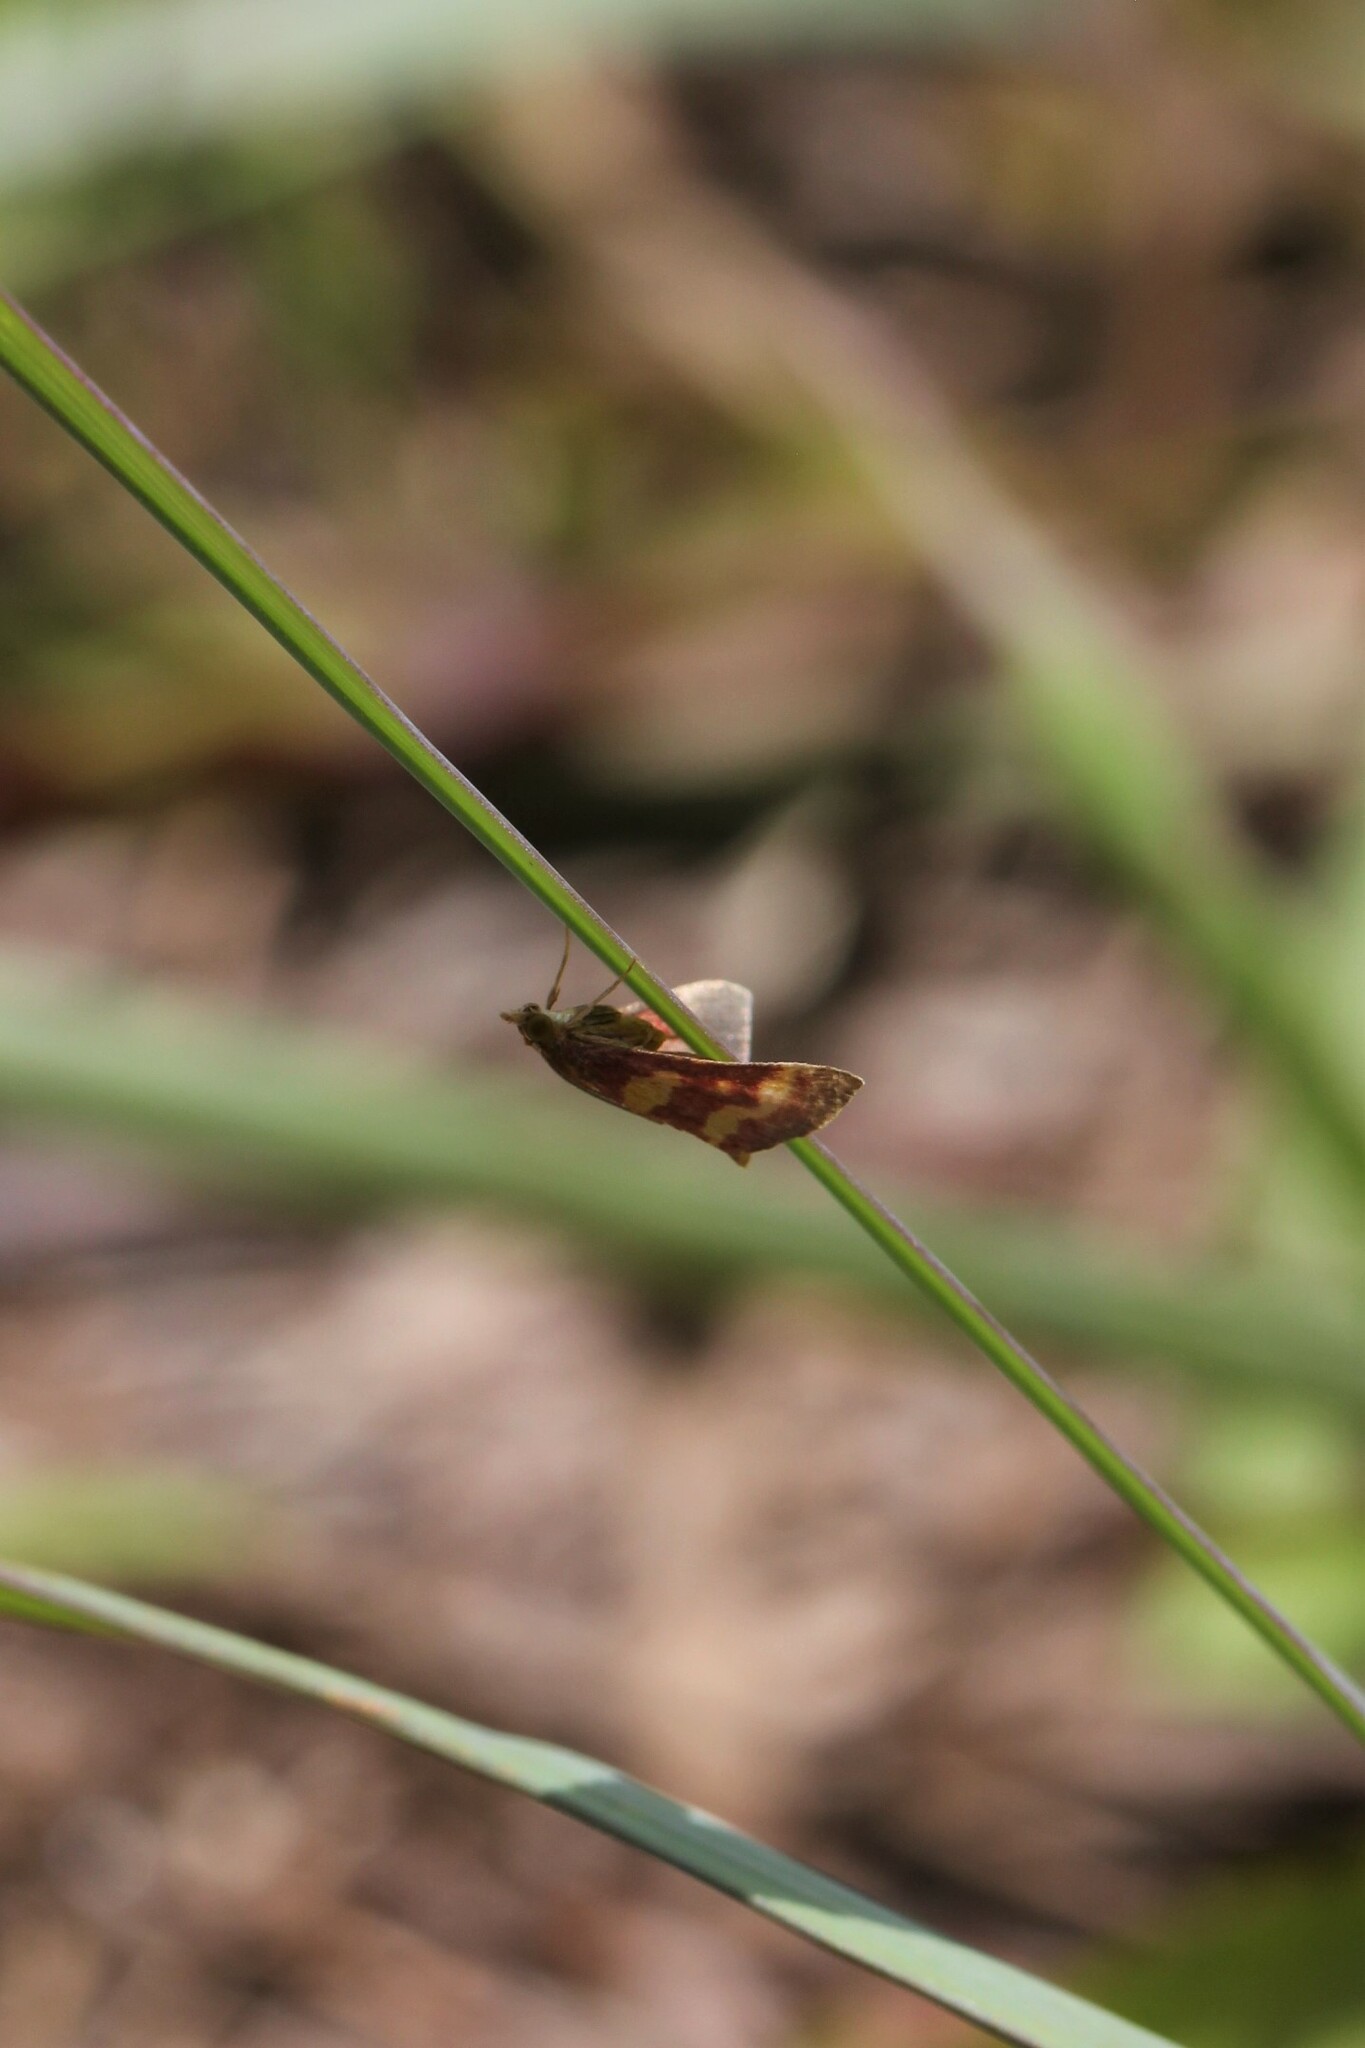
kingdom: Animalia
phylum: Arthropoda
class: Insecta
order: Lepidoptera
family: Crambidae
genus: Pyrausta
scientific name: Pyrausta tyralis
